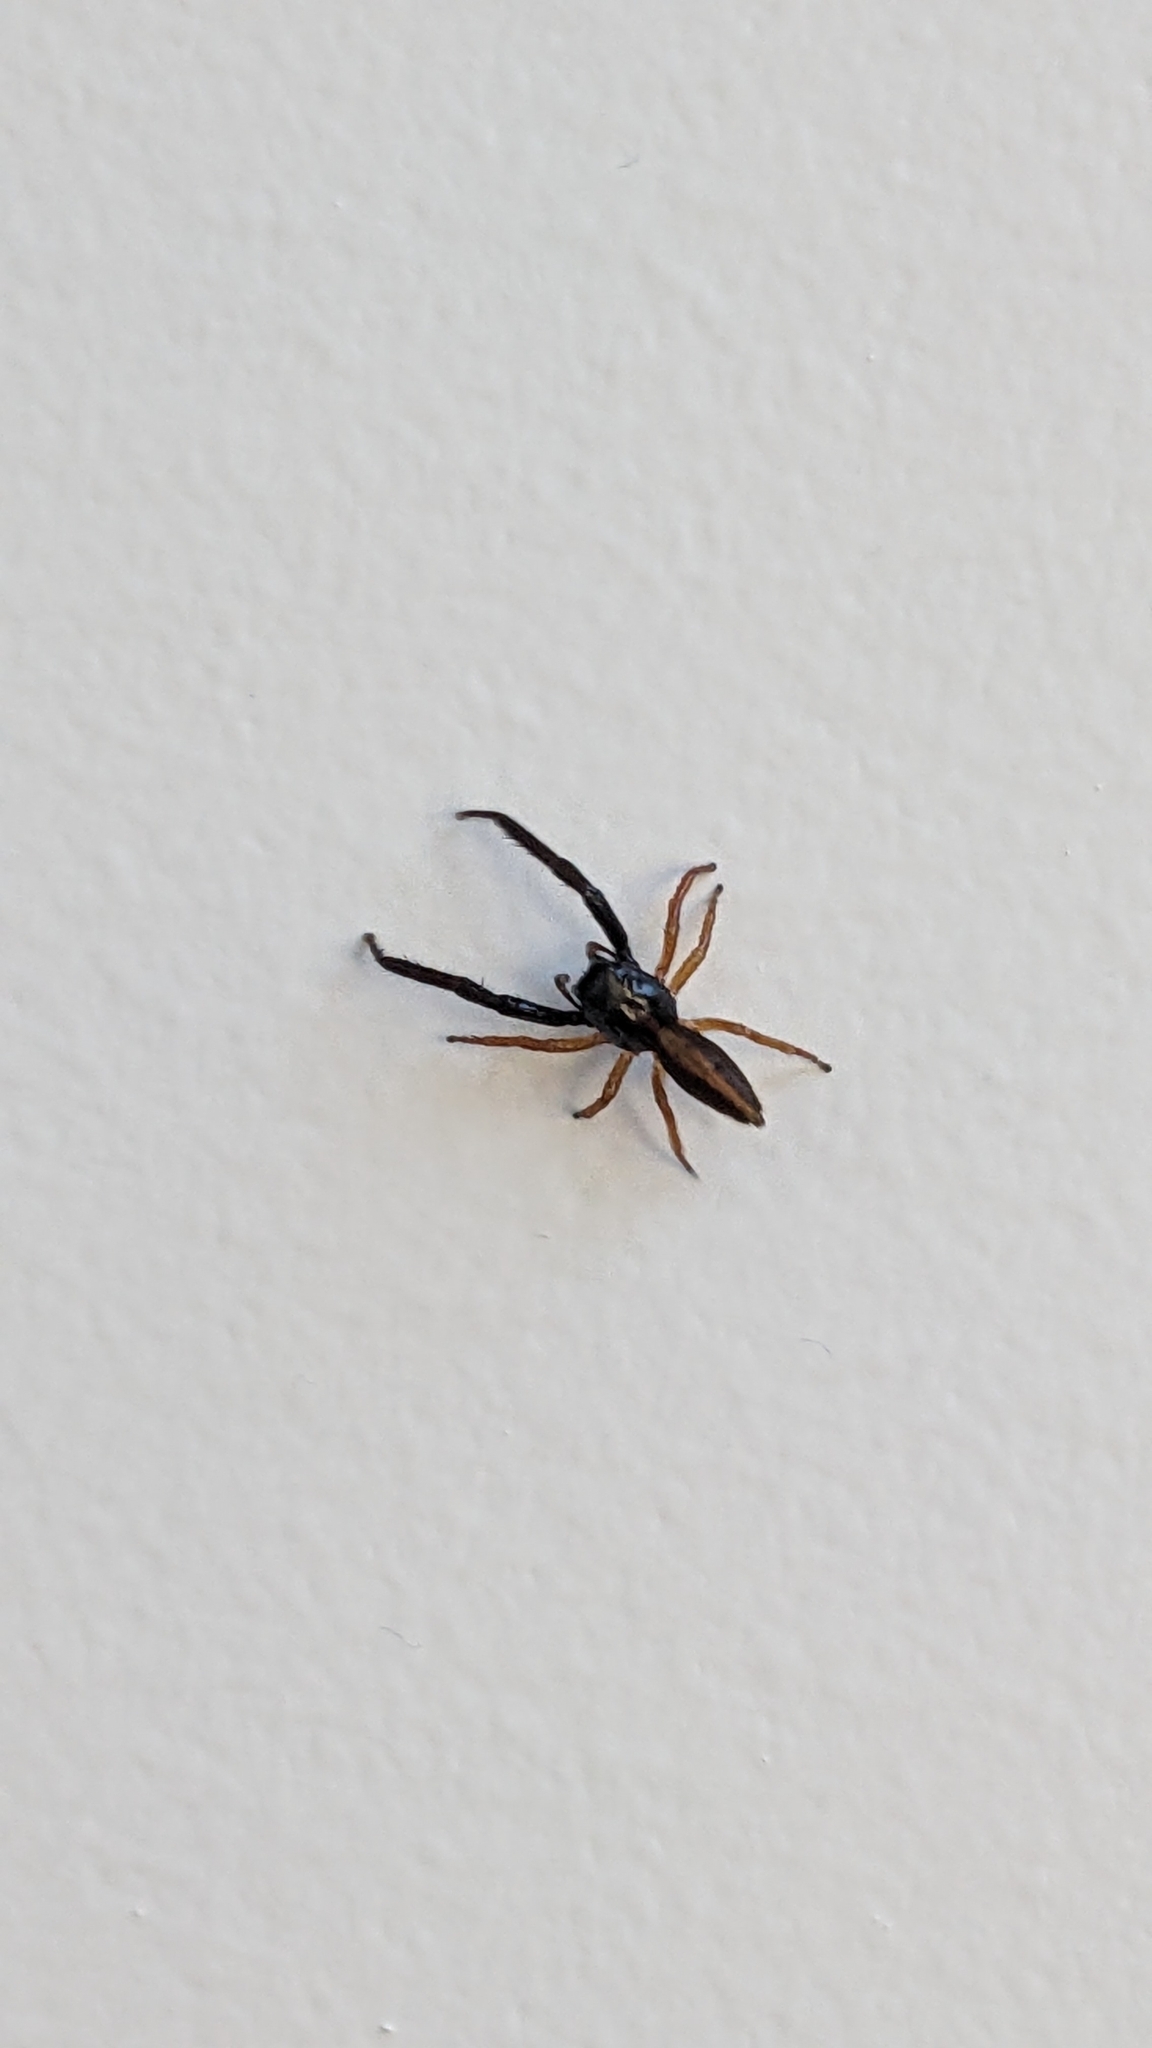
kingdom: Animalia
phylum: Arthropoda
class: Arachnida
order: Araneae
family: Salticidae
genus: Trite
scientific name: Trite planiceps
